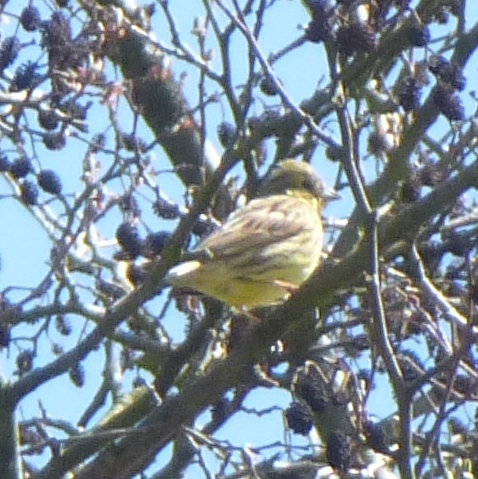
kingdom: Animalia
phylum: Chordata
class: Aves
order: Passeriformes
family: Emberizidae
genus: Emberiza
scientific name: Emberiza citrinella
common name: Yellowhammer
